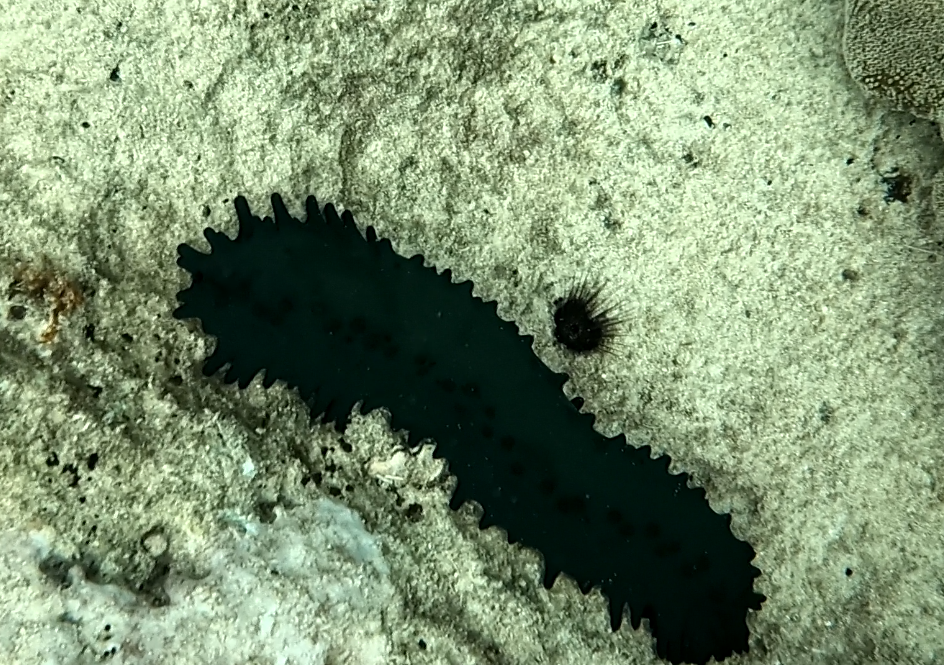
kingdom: Animalia
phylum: Echinodermata
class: Holothuroidea
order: Synallactida
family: Stichopodidae
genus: Stichopus
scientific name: Stichopus chloronotus
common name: Greenfish
